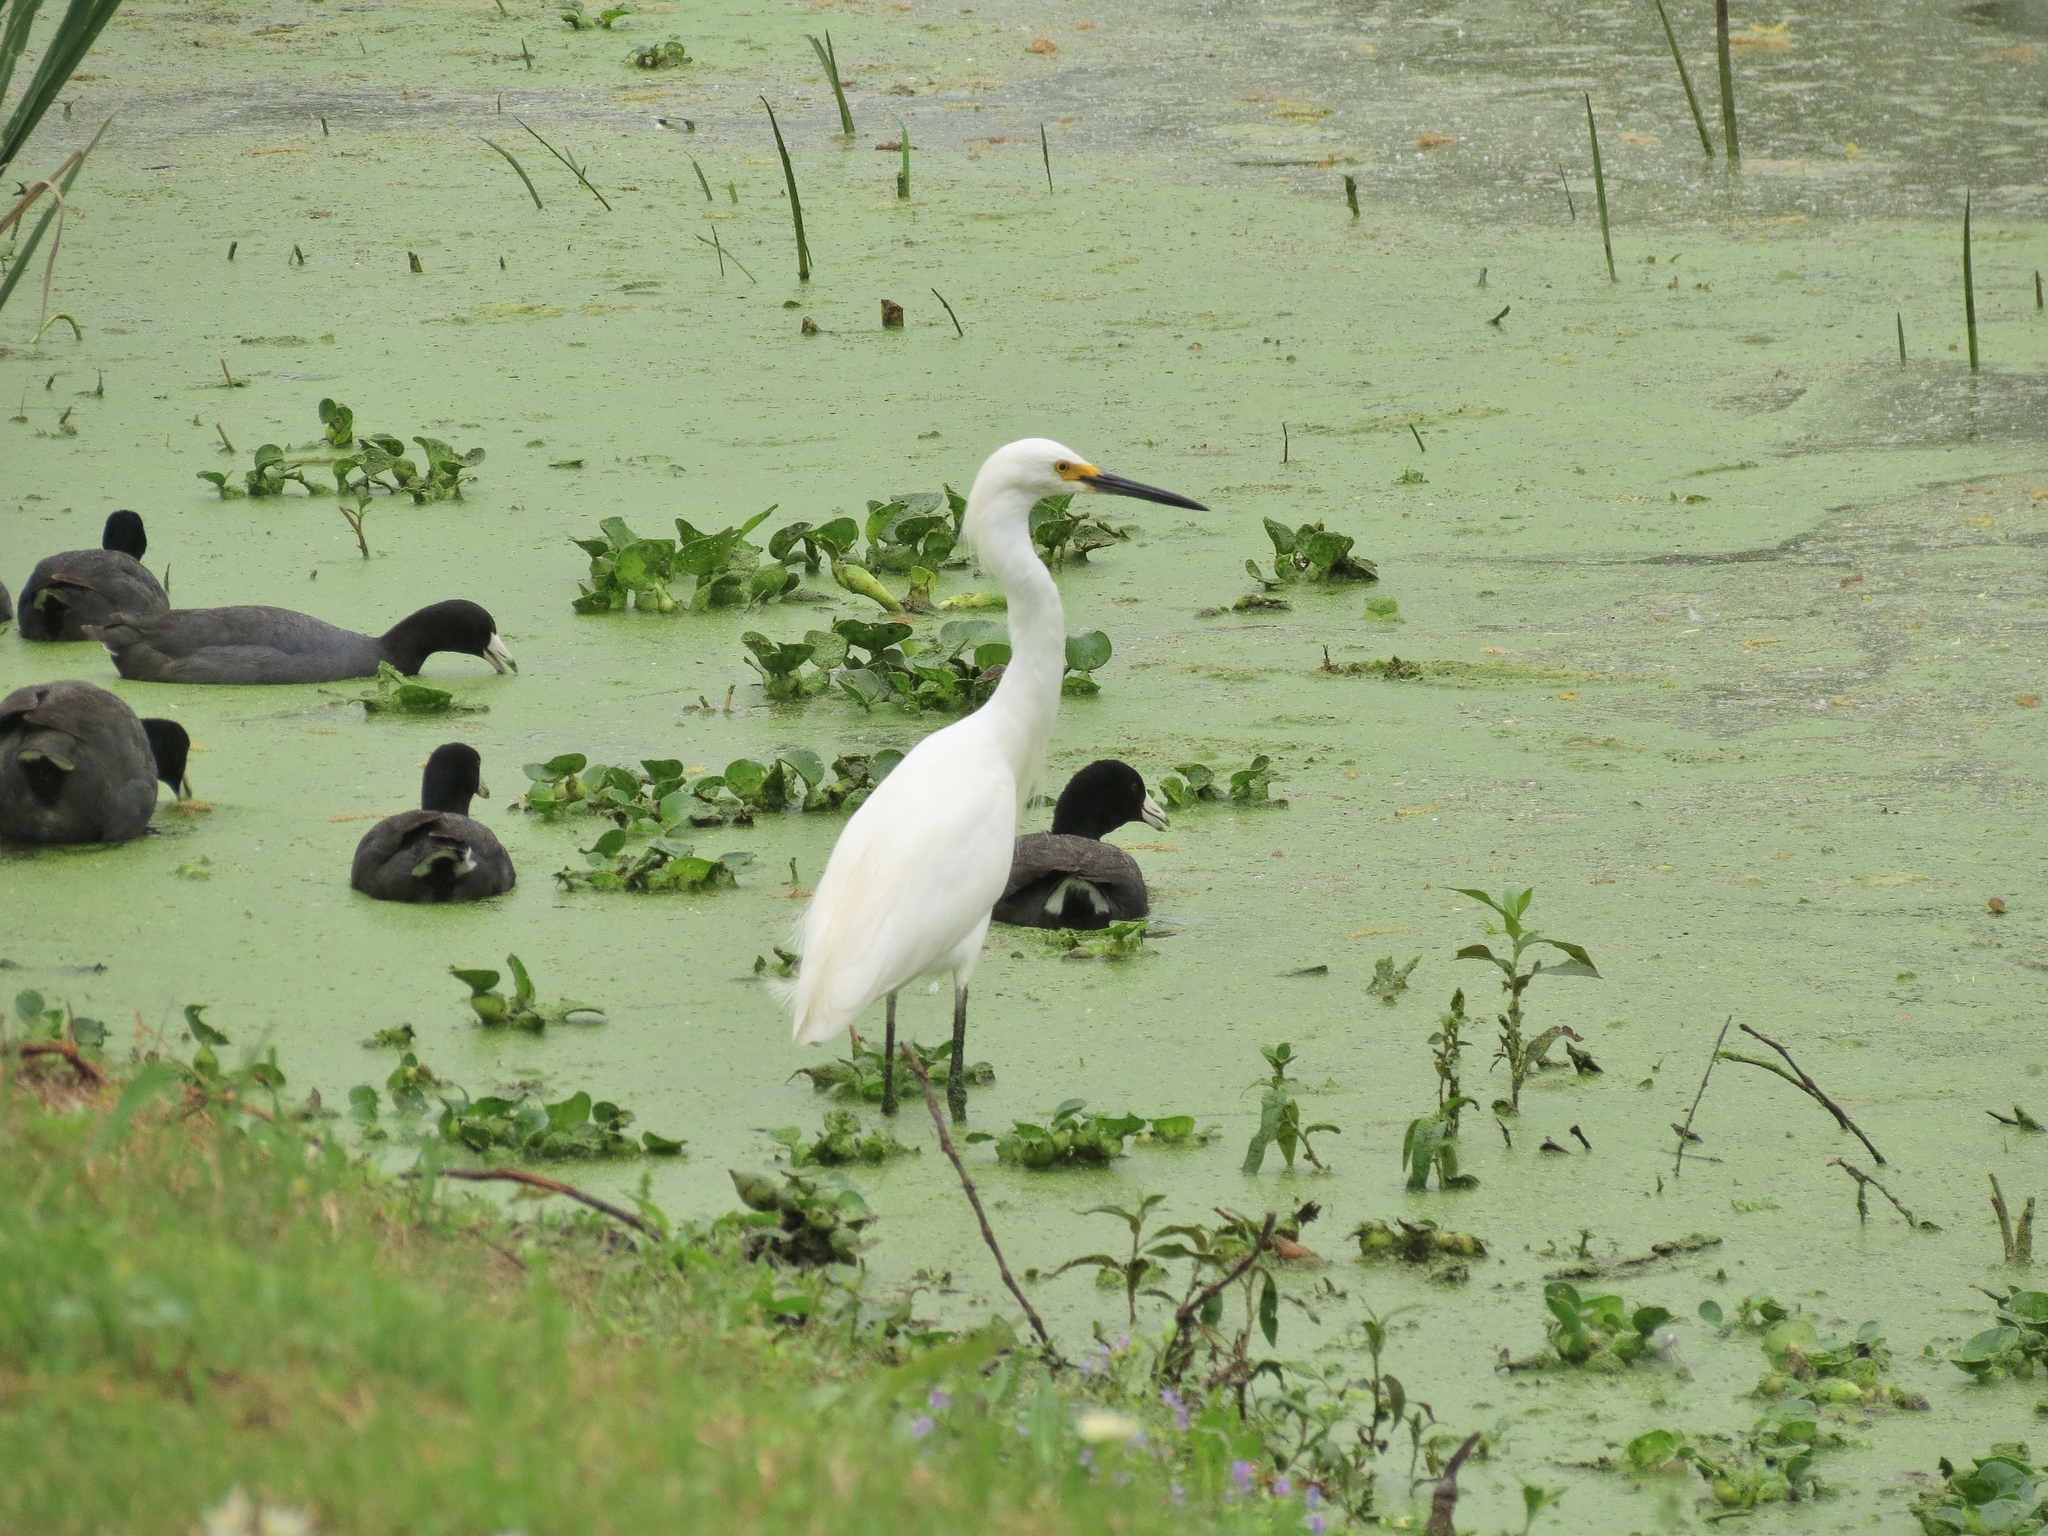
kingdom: Animalia
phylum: Chordata
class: Aves
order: Pelecaniformes
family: Ardeidae
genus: Egretta
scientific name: Egretta thula
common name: Snowy egret
